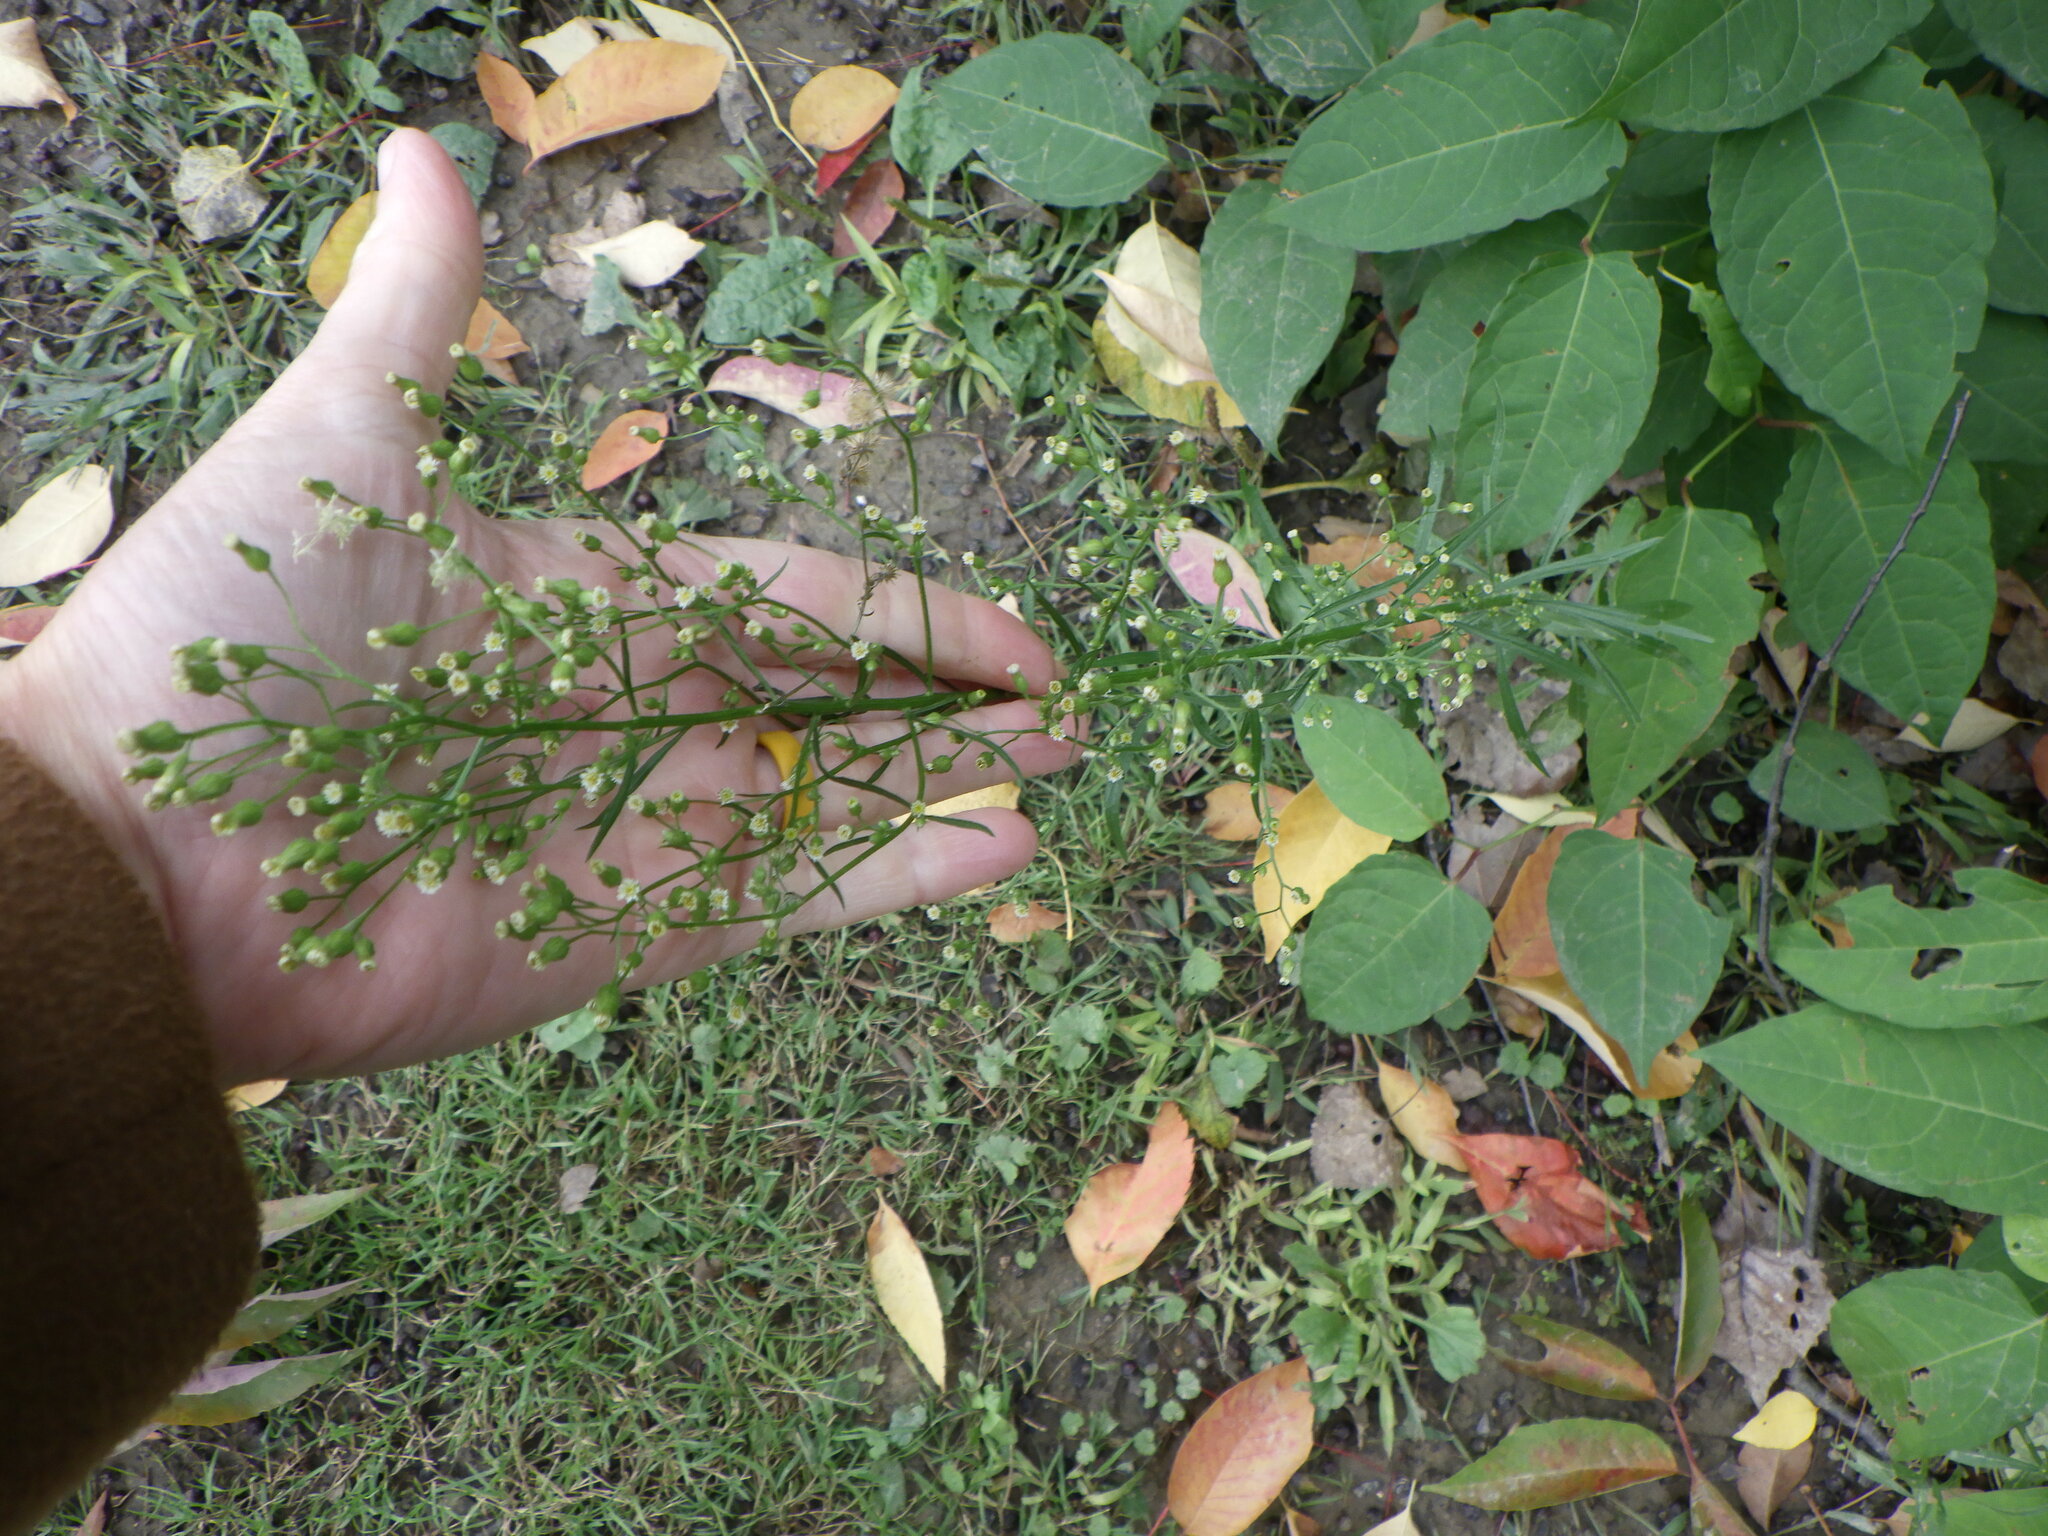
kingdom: Plantae
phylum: Tracheophyta
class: Magnoliopsida
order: Asterales
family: Asteraceae
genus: Erigeron
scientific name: Erigeron canadensis
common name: Canadian fleabane
